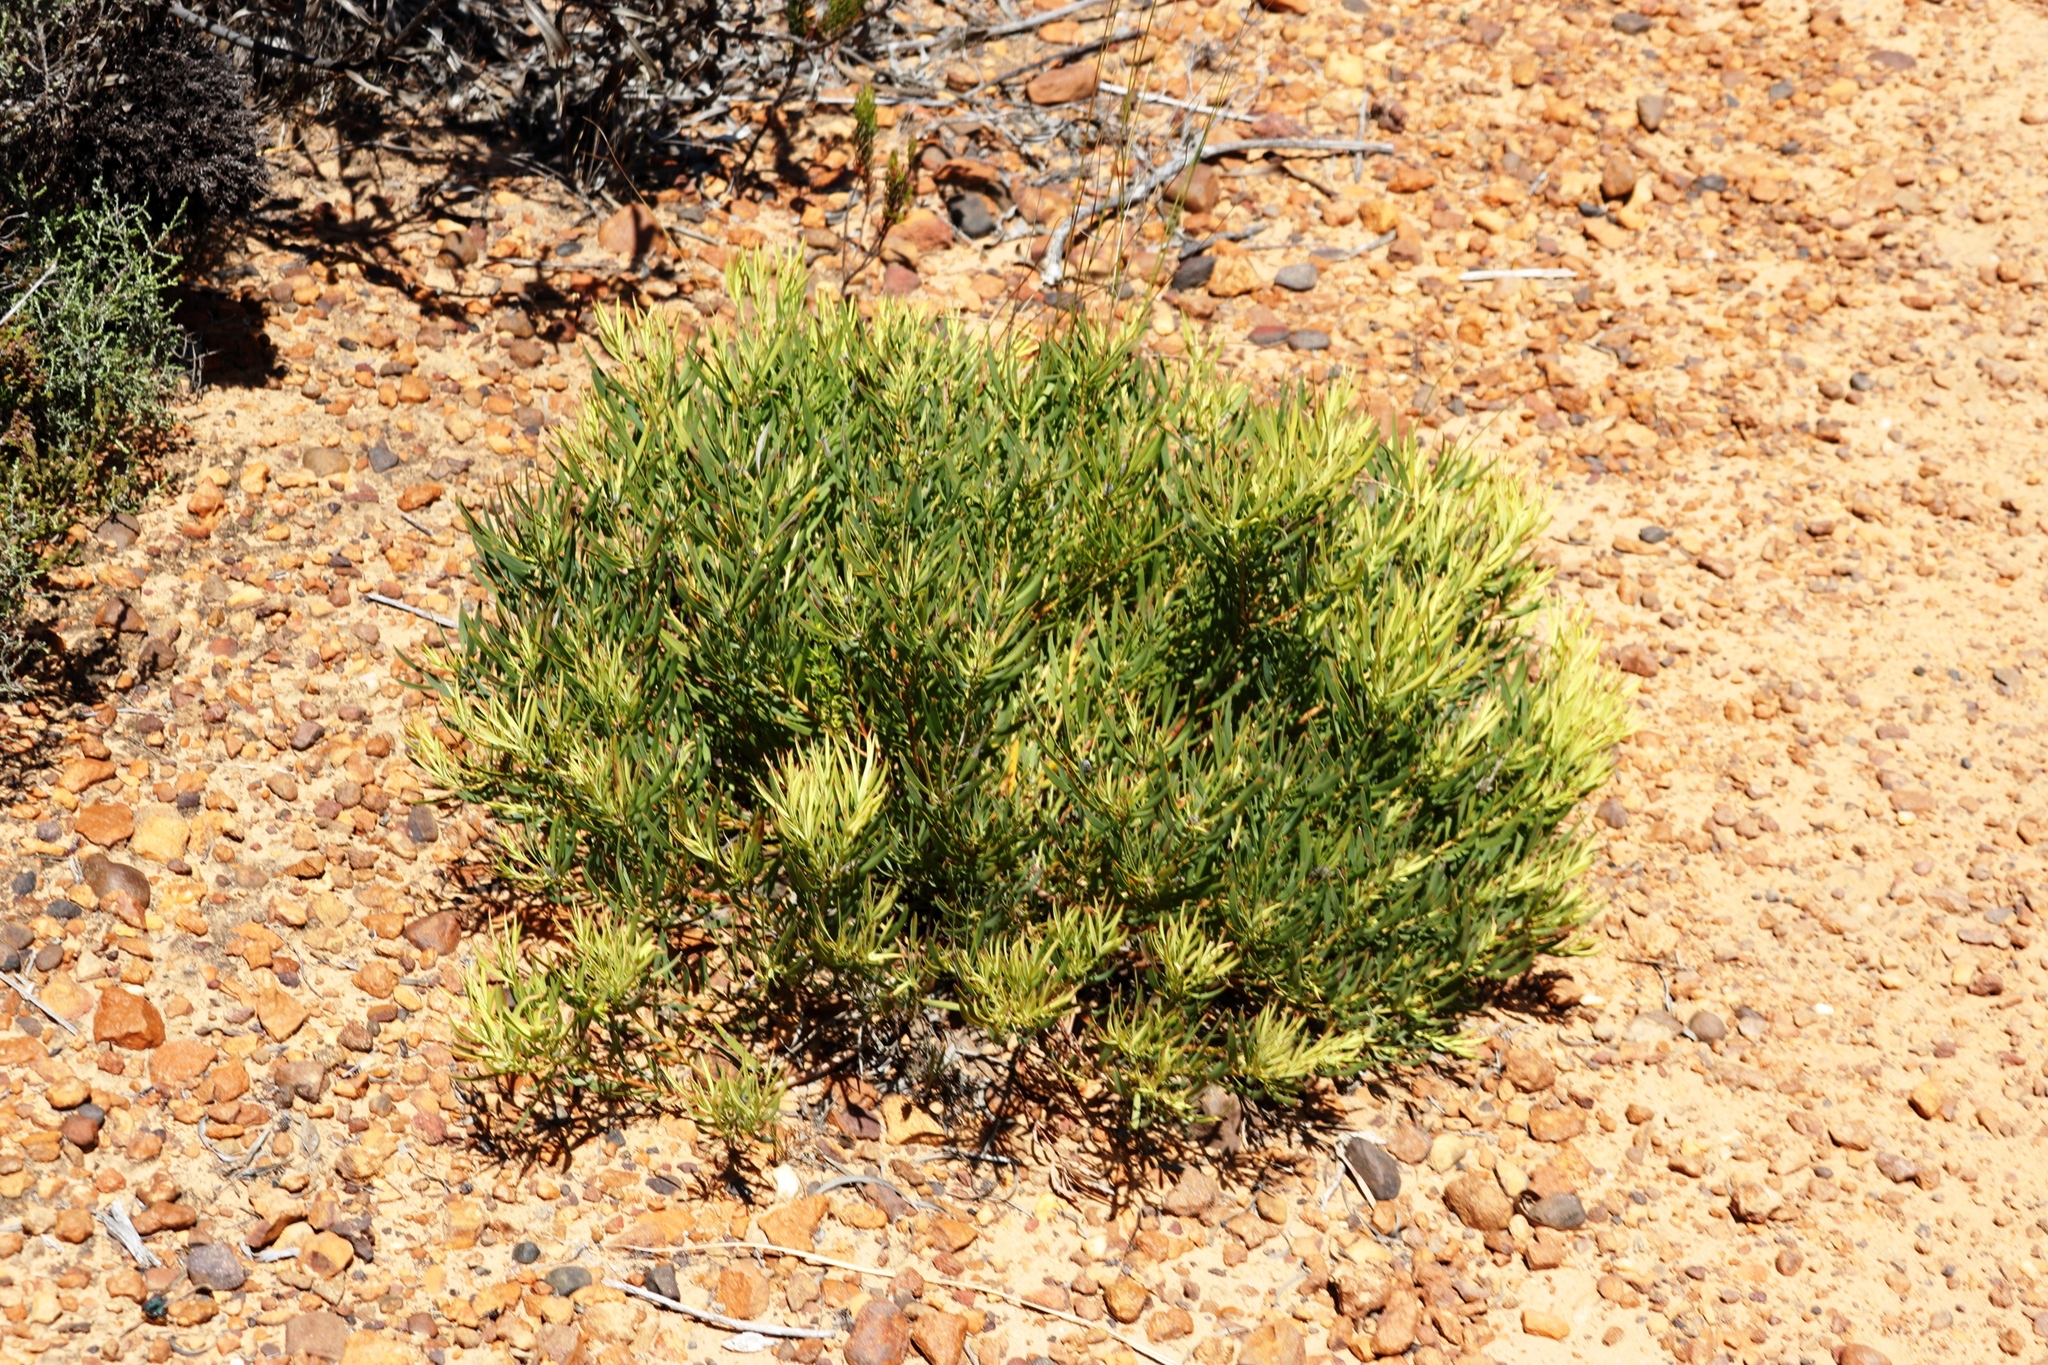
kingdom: Plantae
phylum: Tracheophyta
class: Magnoliopsida
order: Proteales
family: Proteaceae
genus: Leucadendron
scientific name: Leucadendron salignum
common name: Common sunshine conebush
